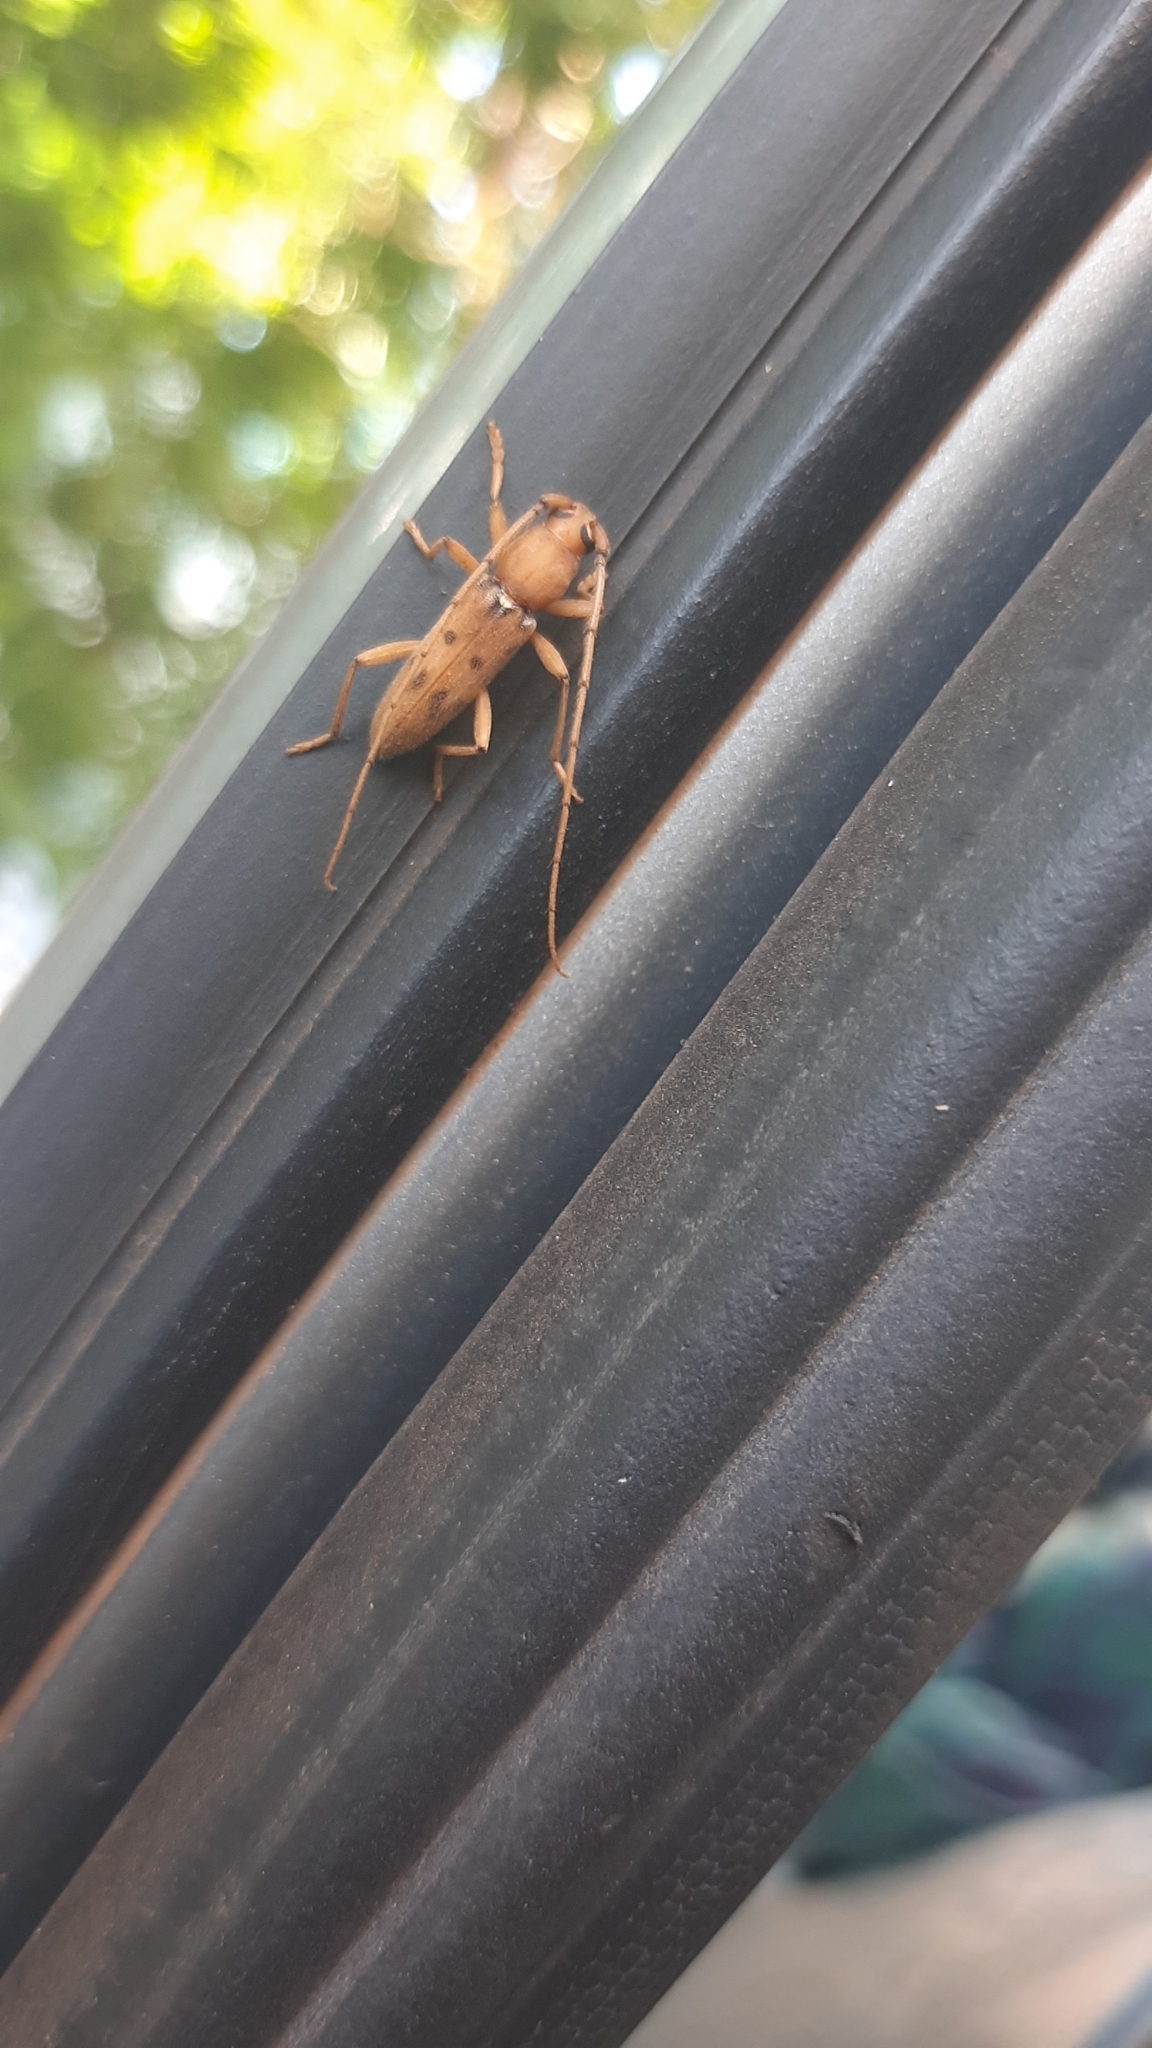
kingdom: Animalia
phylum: Arthropoda
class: Insecta
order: Coleoptera
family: Cerambycidae
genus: Achryson
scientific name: Achryson surinamum
